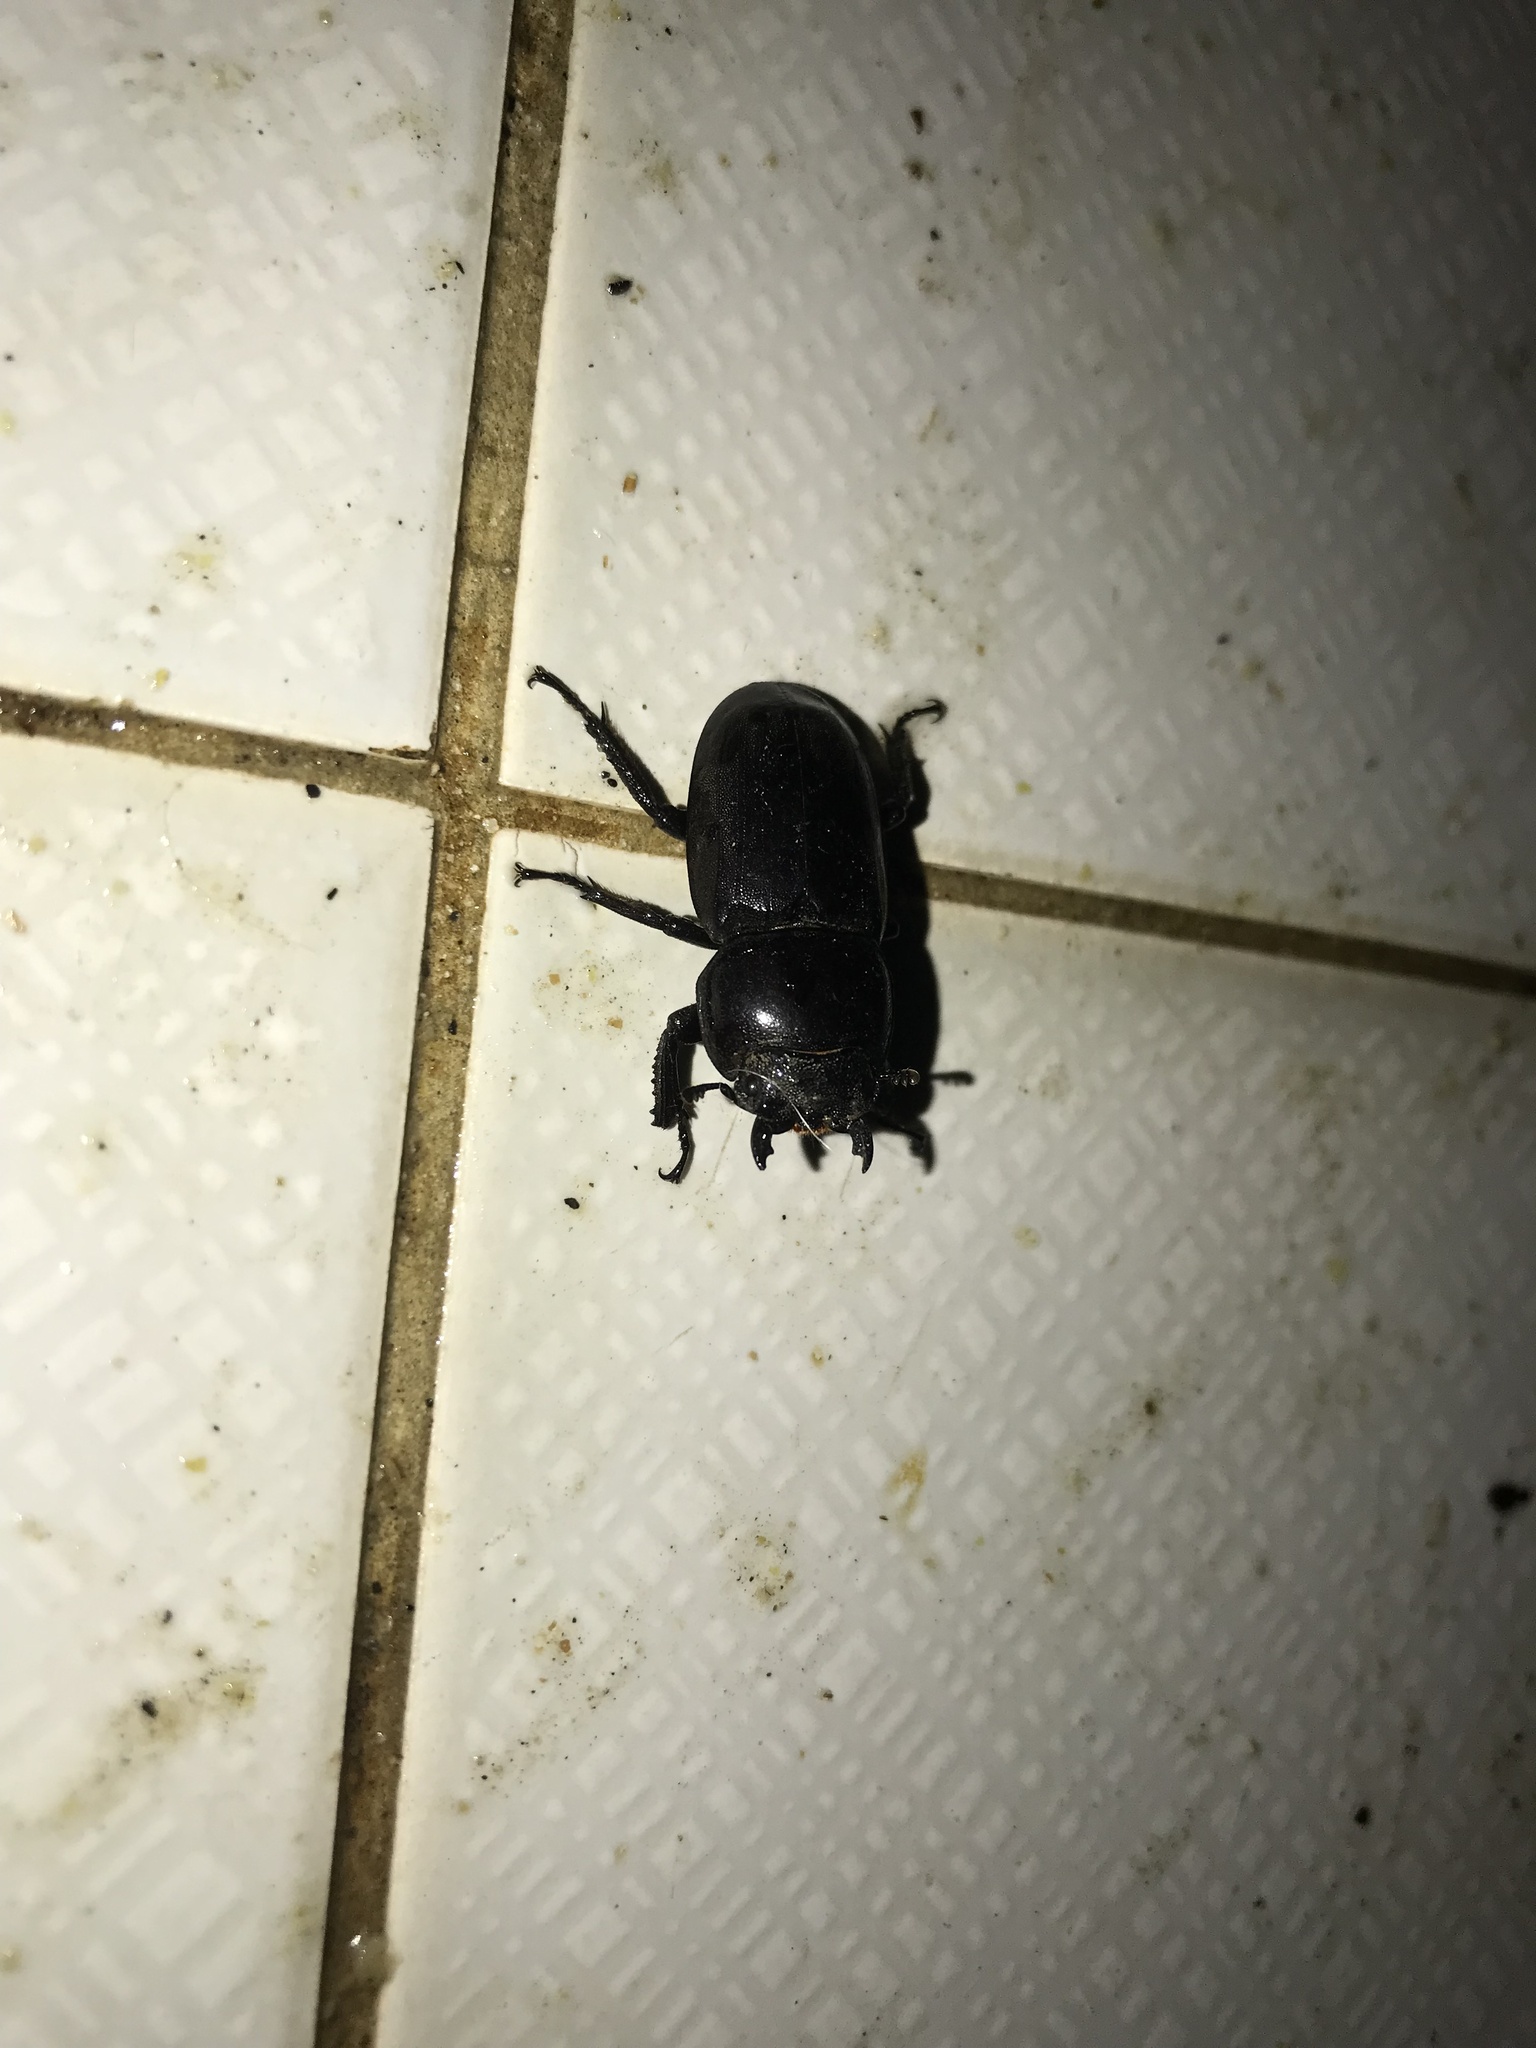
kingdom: Animalia
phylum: Arthropoda
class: Insecta
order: Coleoptera
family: Lucanidae
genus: Serrognathus
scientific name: Serrognathus titanus
